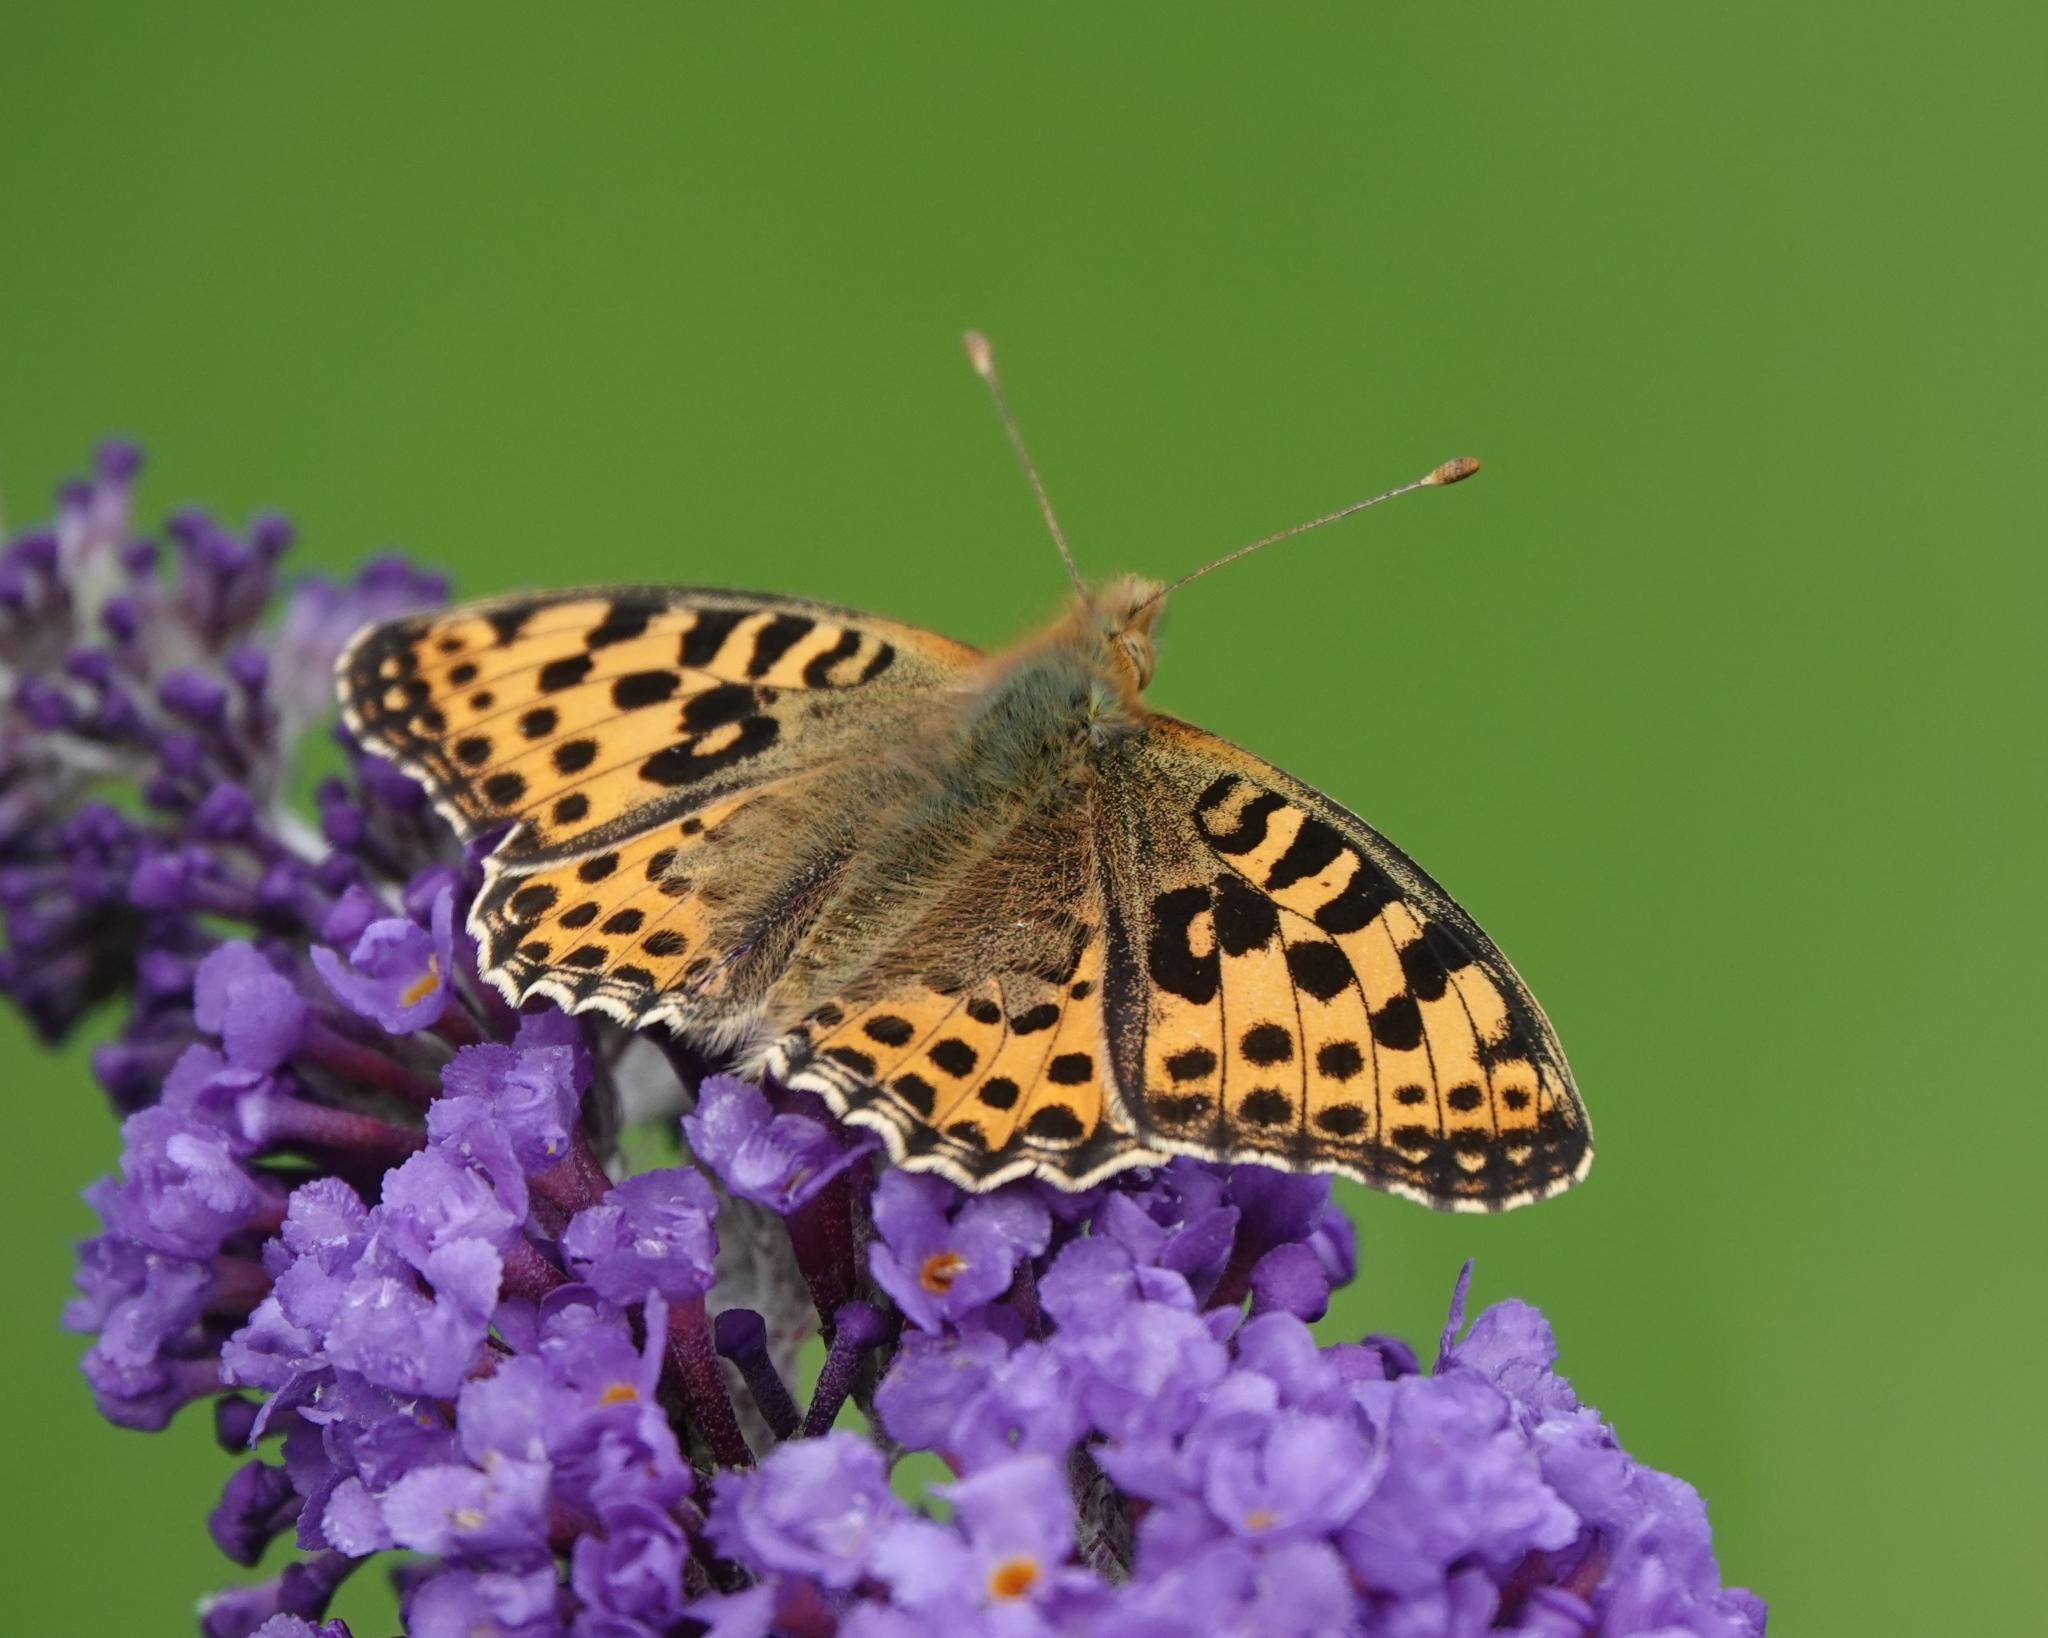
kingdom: Animalia
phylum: Arthropoda
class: Insecta
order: Lepidoptera
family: Nymphalidae
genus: Issoria
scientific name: Issoria lathonia
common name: Queen of spain fritillary
